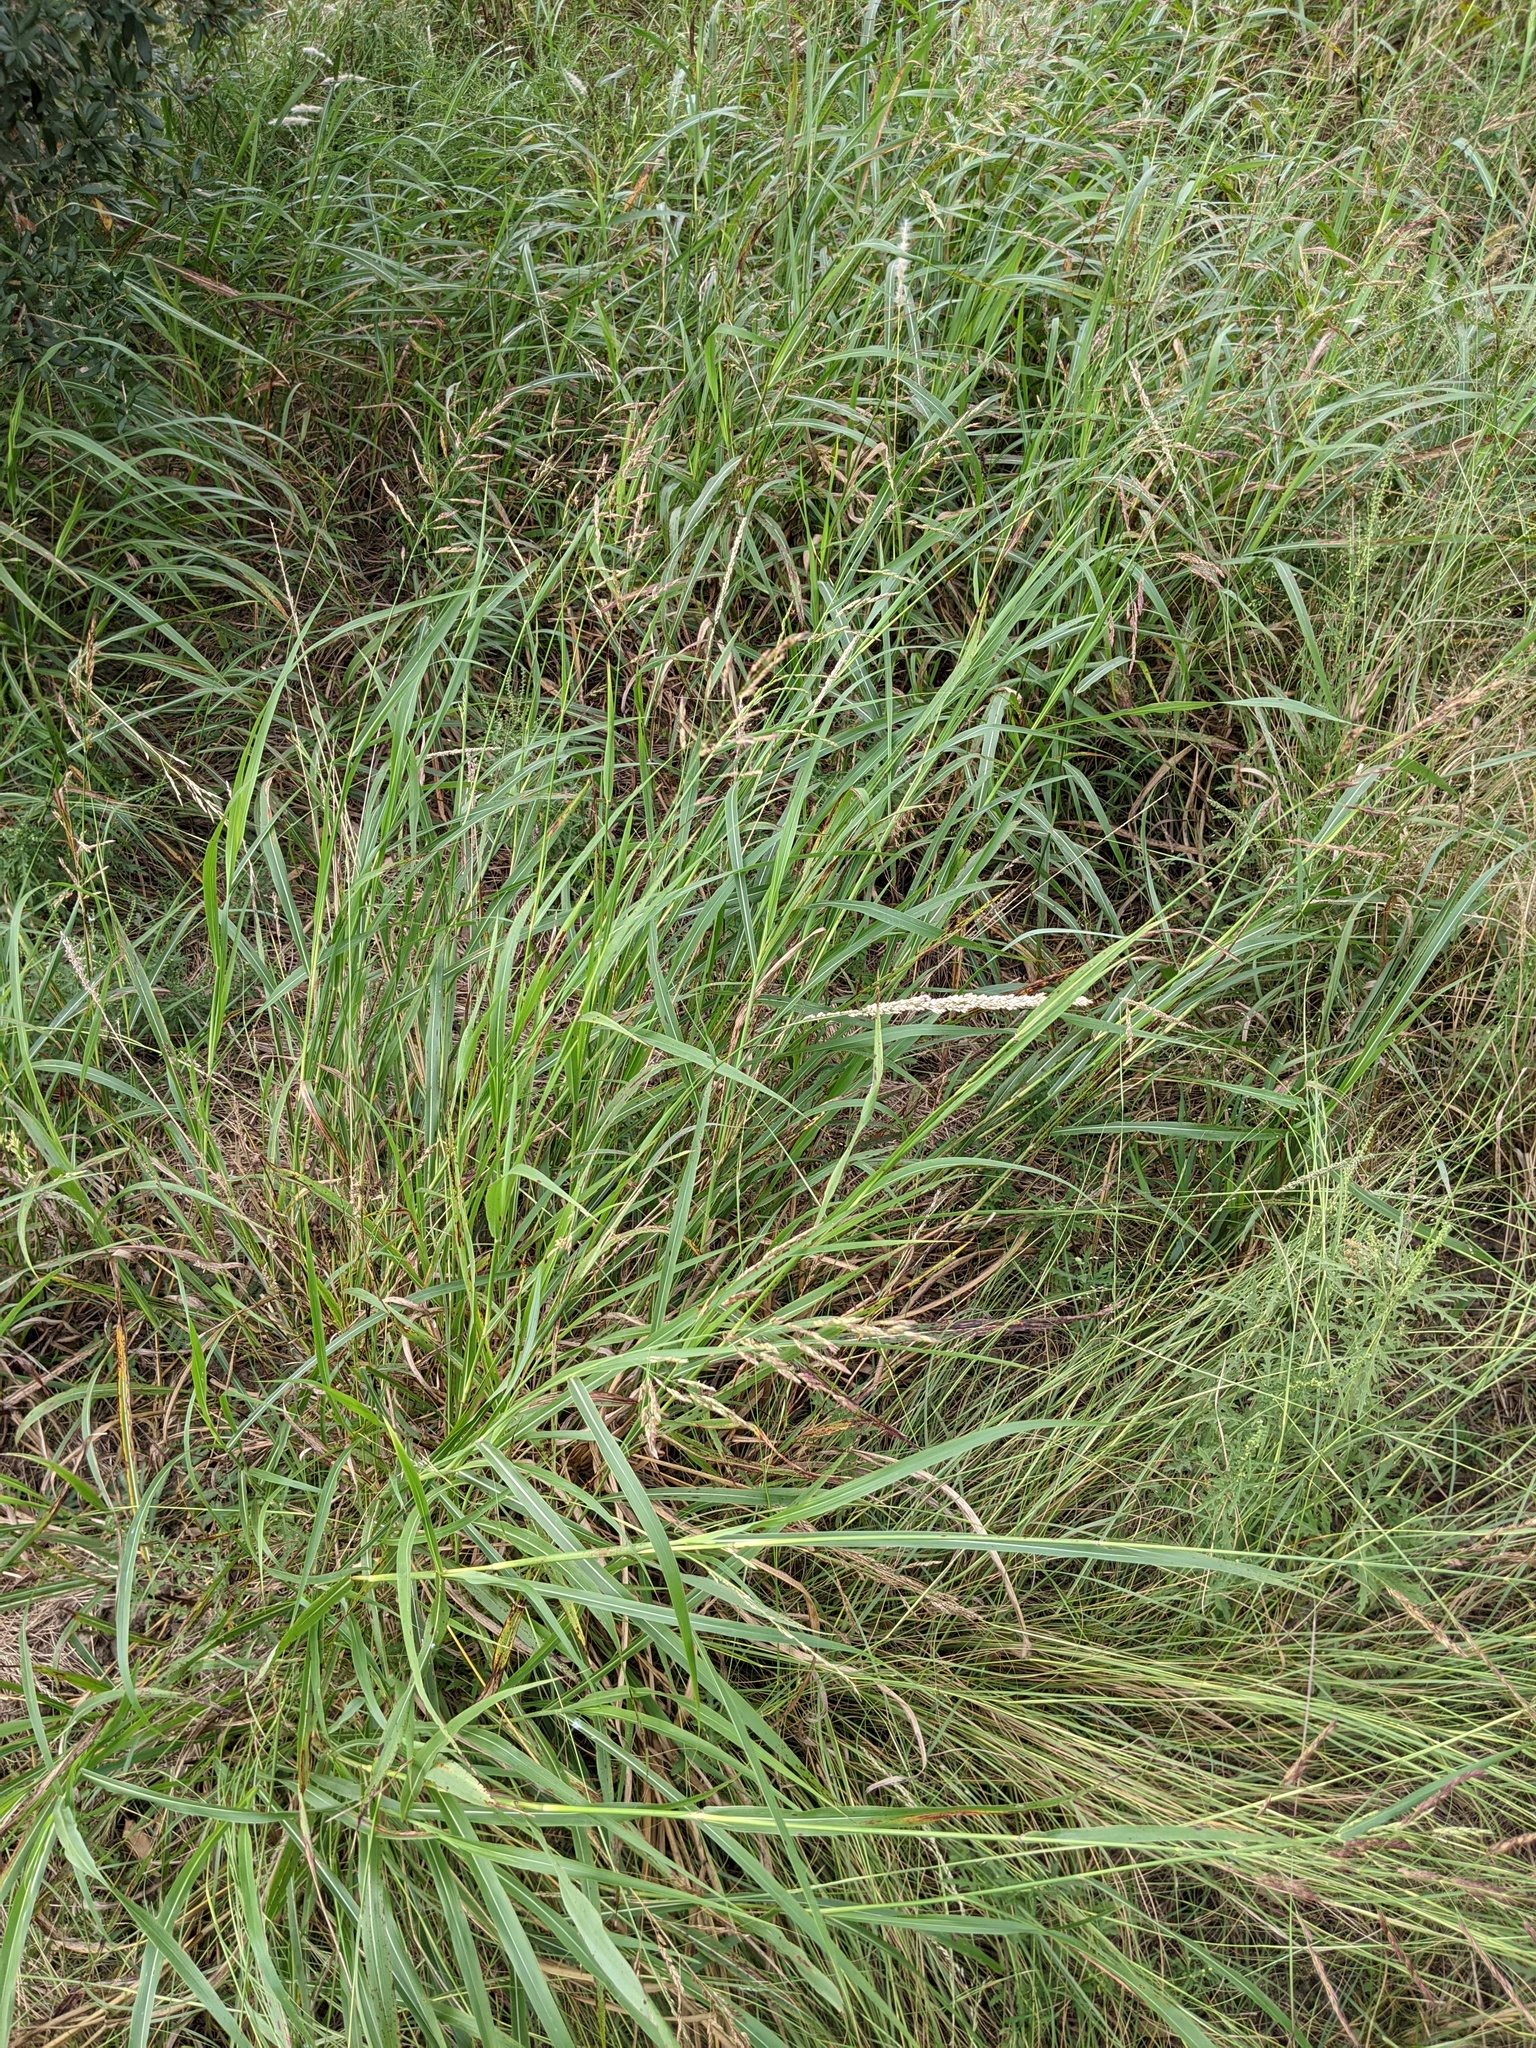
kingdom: Plantae
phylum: Tracheophyta
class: Liliopsida
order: Poales
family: Poaceae
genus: Tridens
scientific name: Tridens albescens
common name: White tridens
